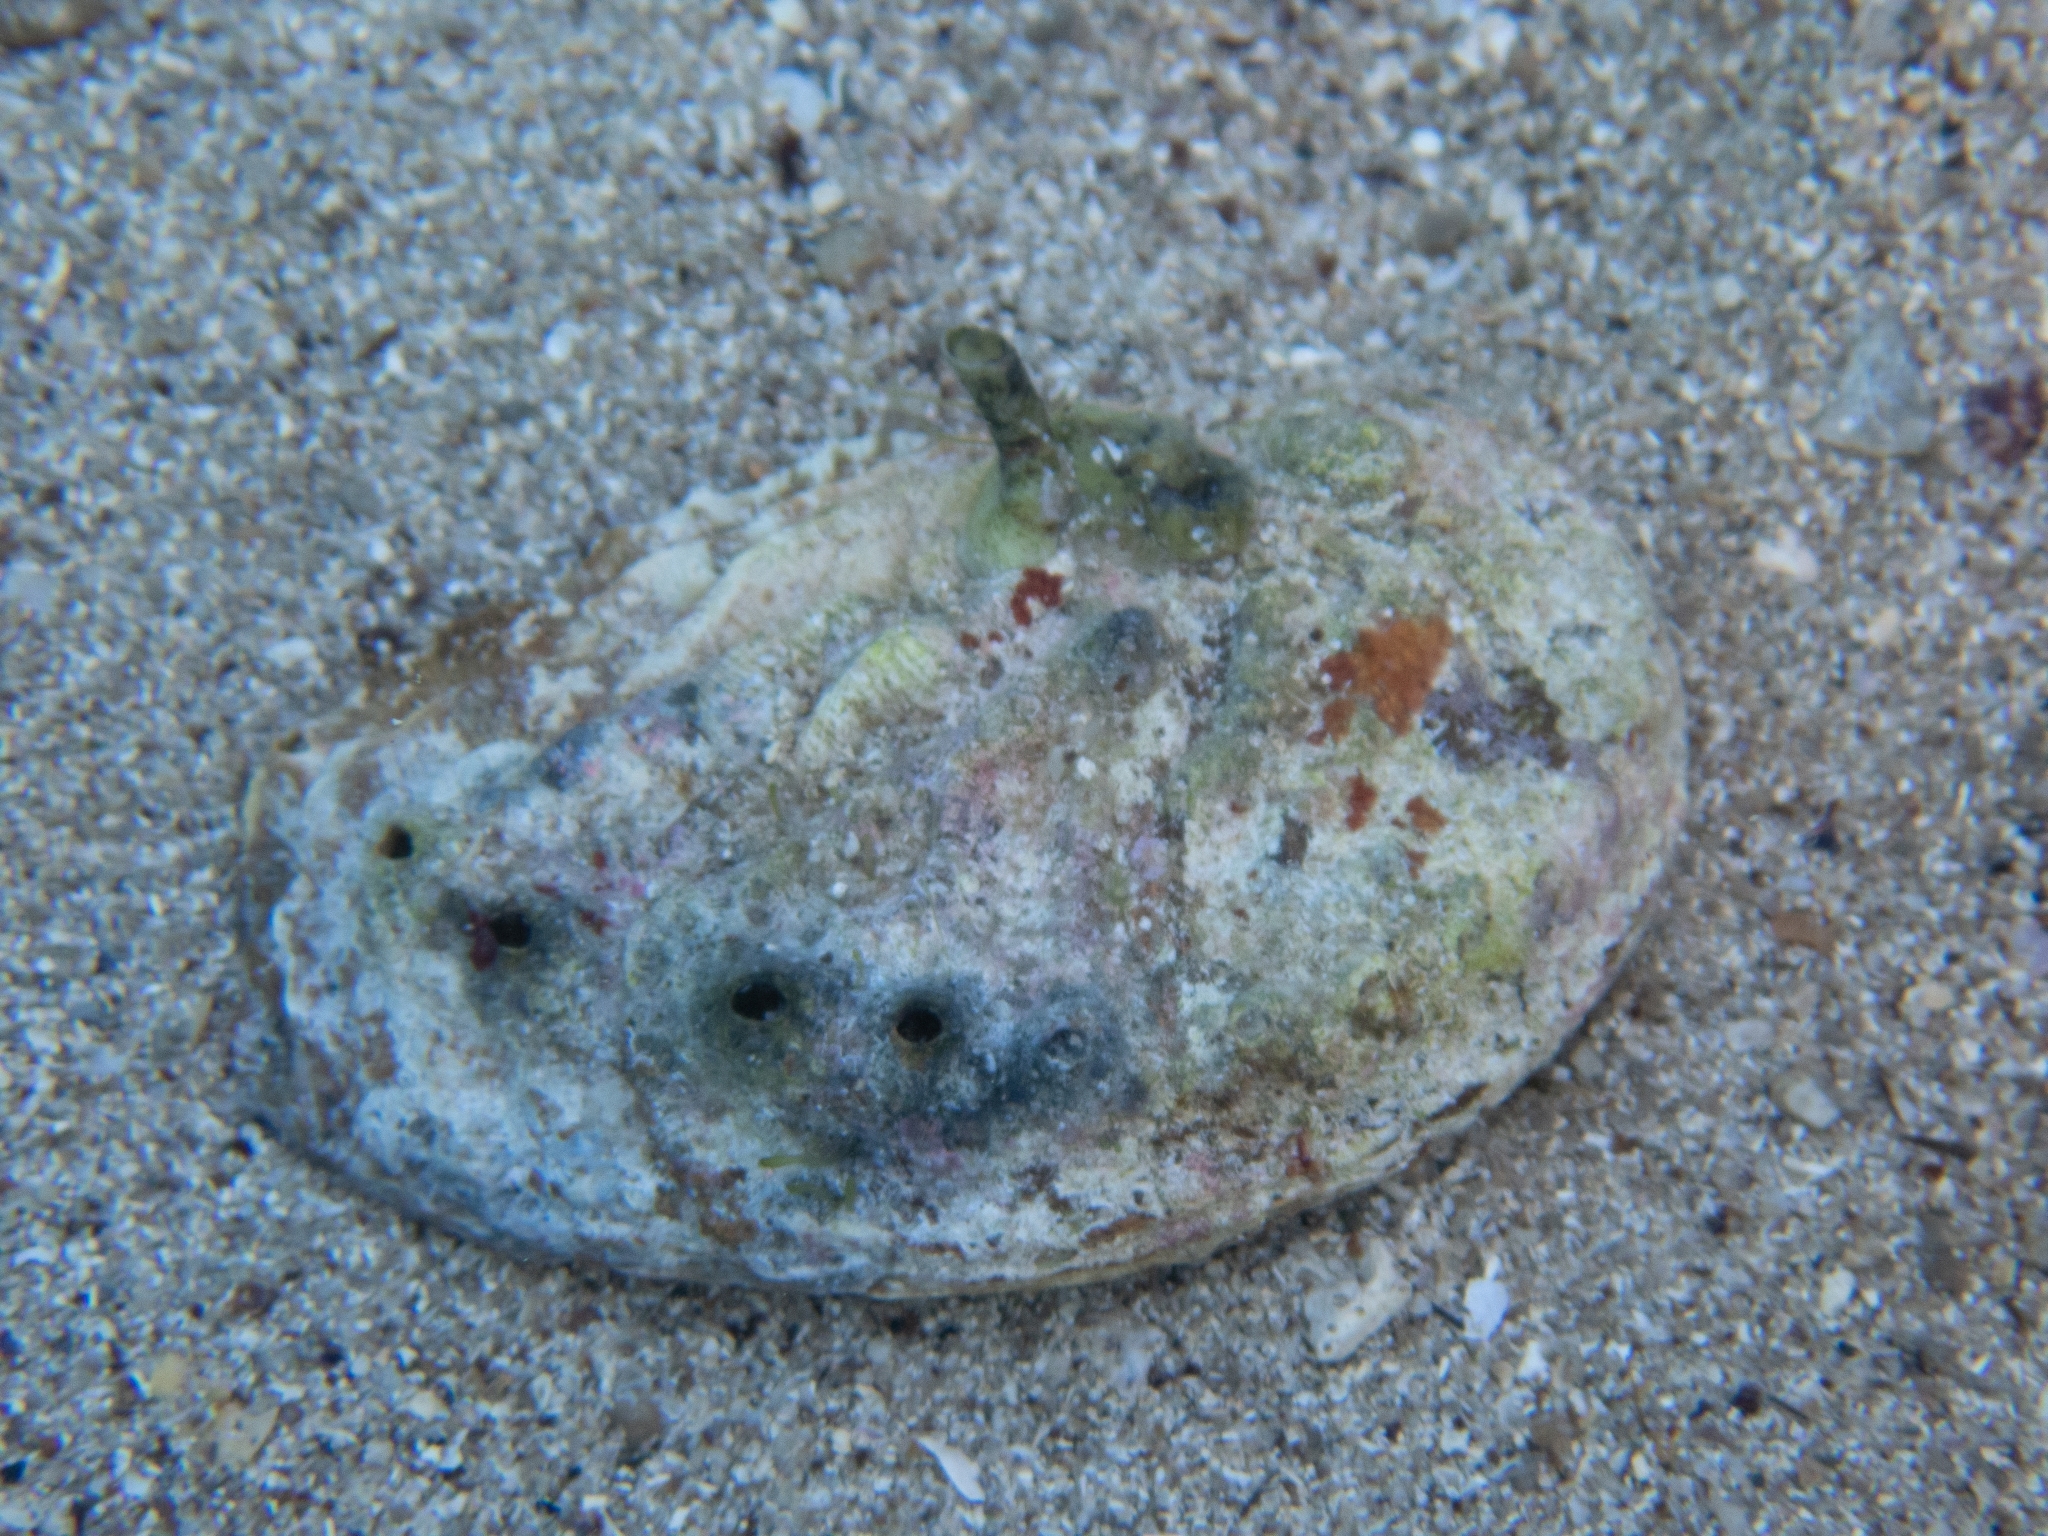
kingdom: Animalia
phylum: Mollusca
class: Gastropoda
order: Lepetellida
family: Haliotidae
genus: Haliotis
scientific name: Haliotis tuberculata
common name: Green ormer
